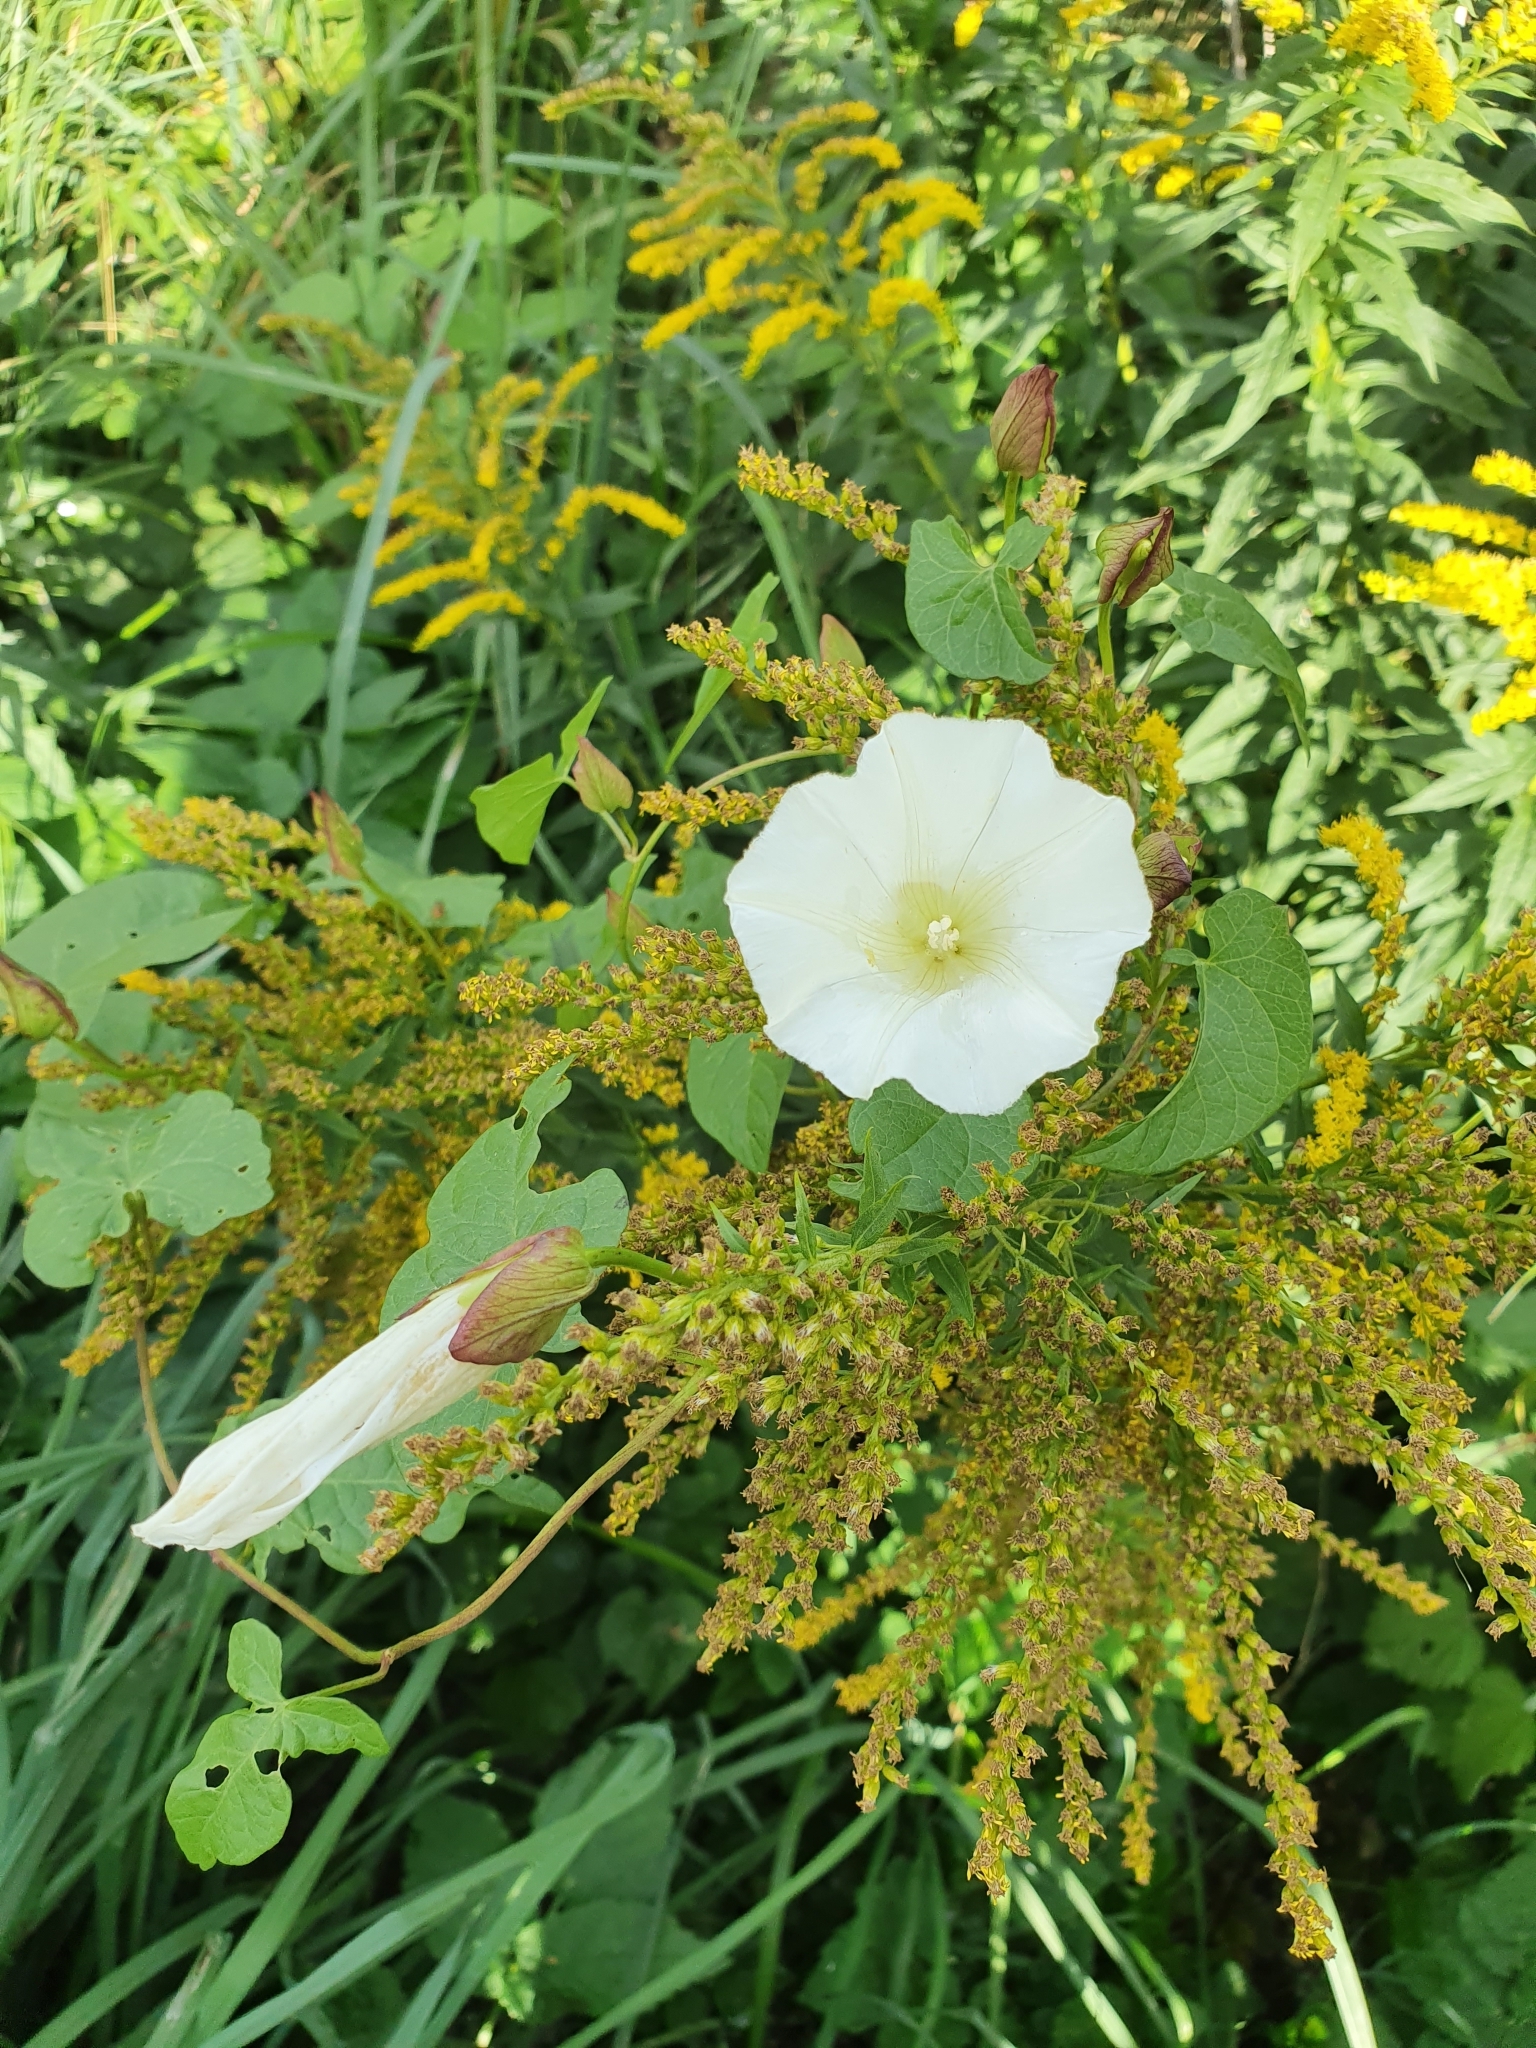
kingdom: Plantae
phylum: Tracheophyta
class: Magnoliopsida
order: Solanales
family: Convolvulaceae
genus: Calystegia
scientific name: Calystegia sepium
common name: Hedge bindweed
